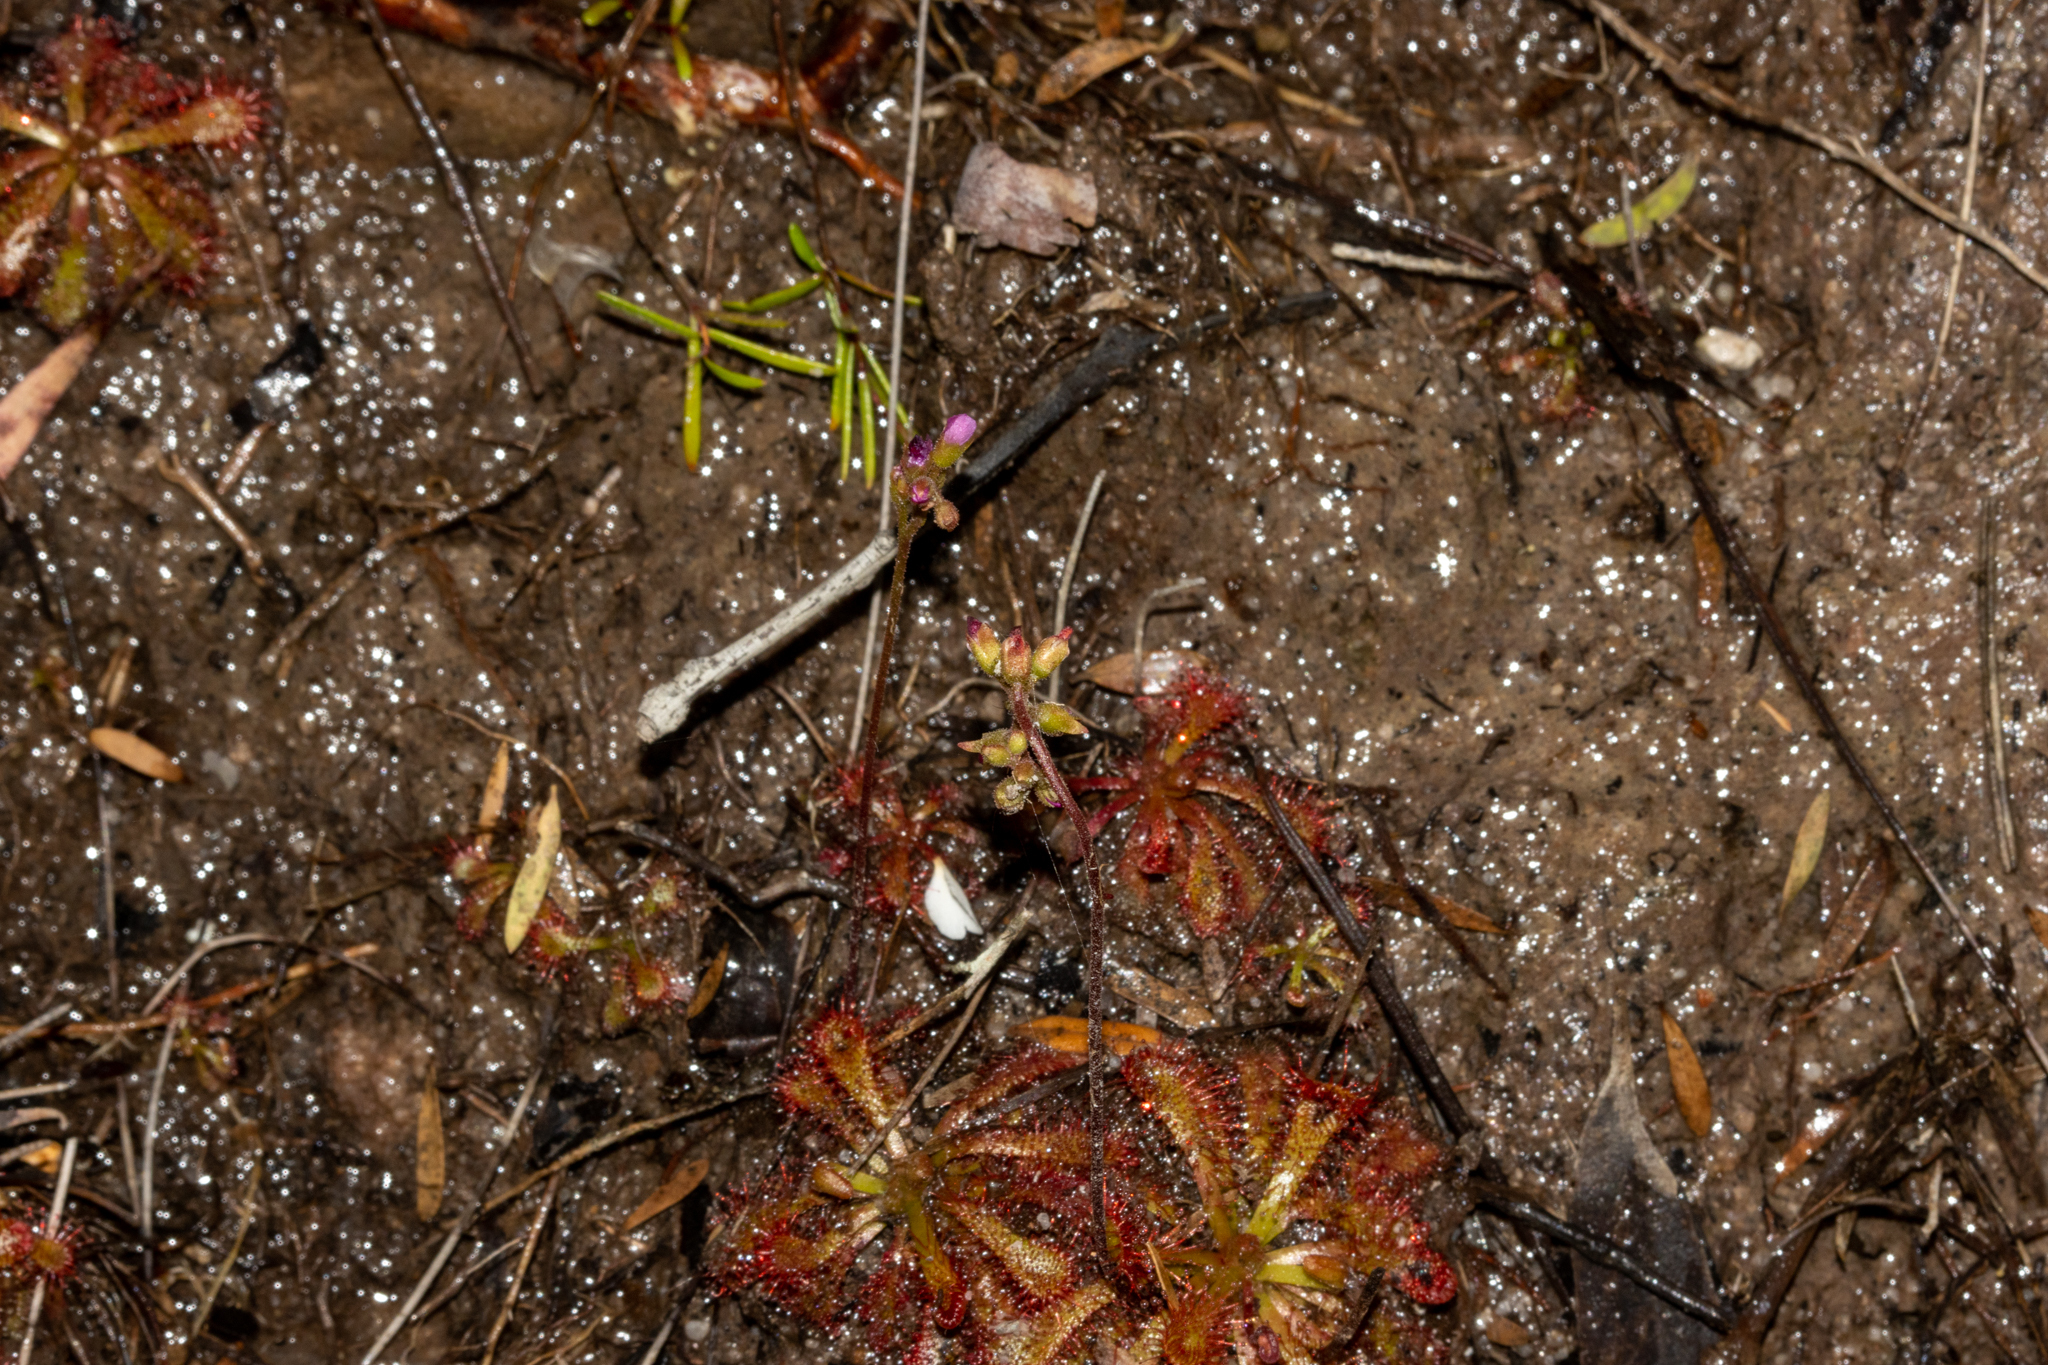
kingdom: Plantae
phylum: Tracheophyta
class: Magnoliopsida
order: Caryophyllales
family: Droseraceae
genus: Drosera
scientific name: Drosera spatulata
